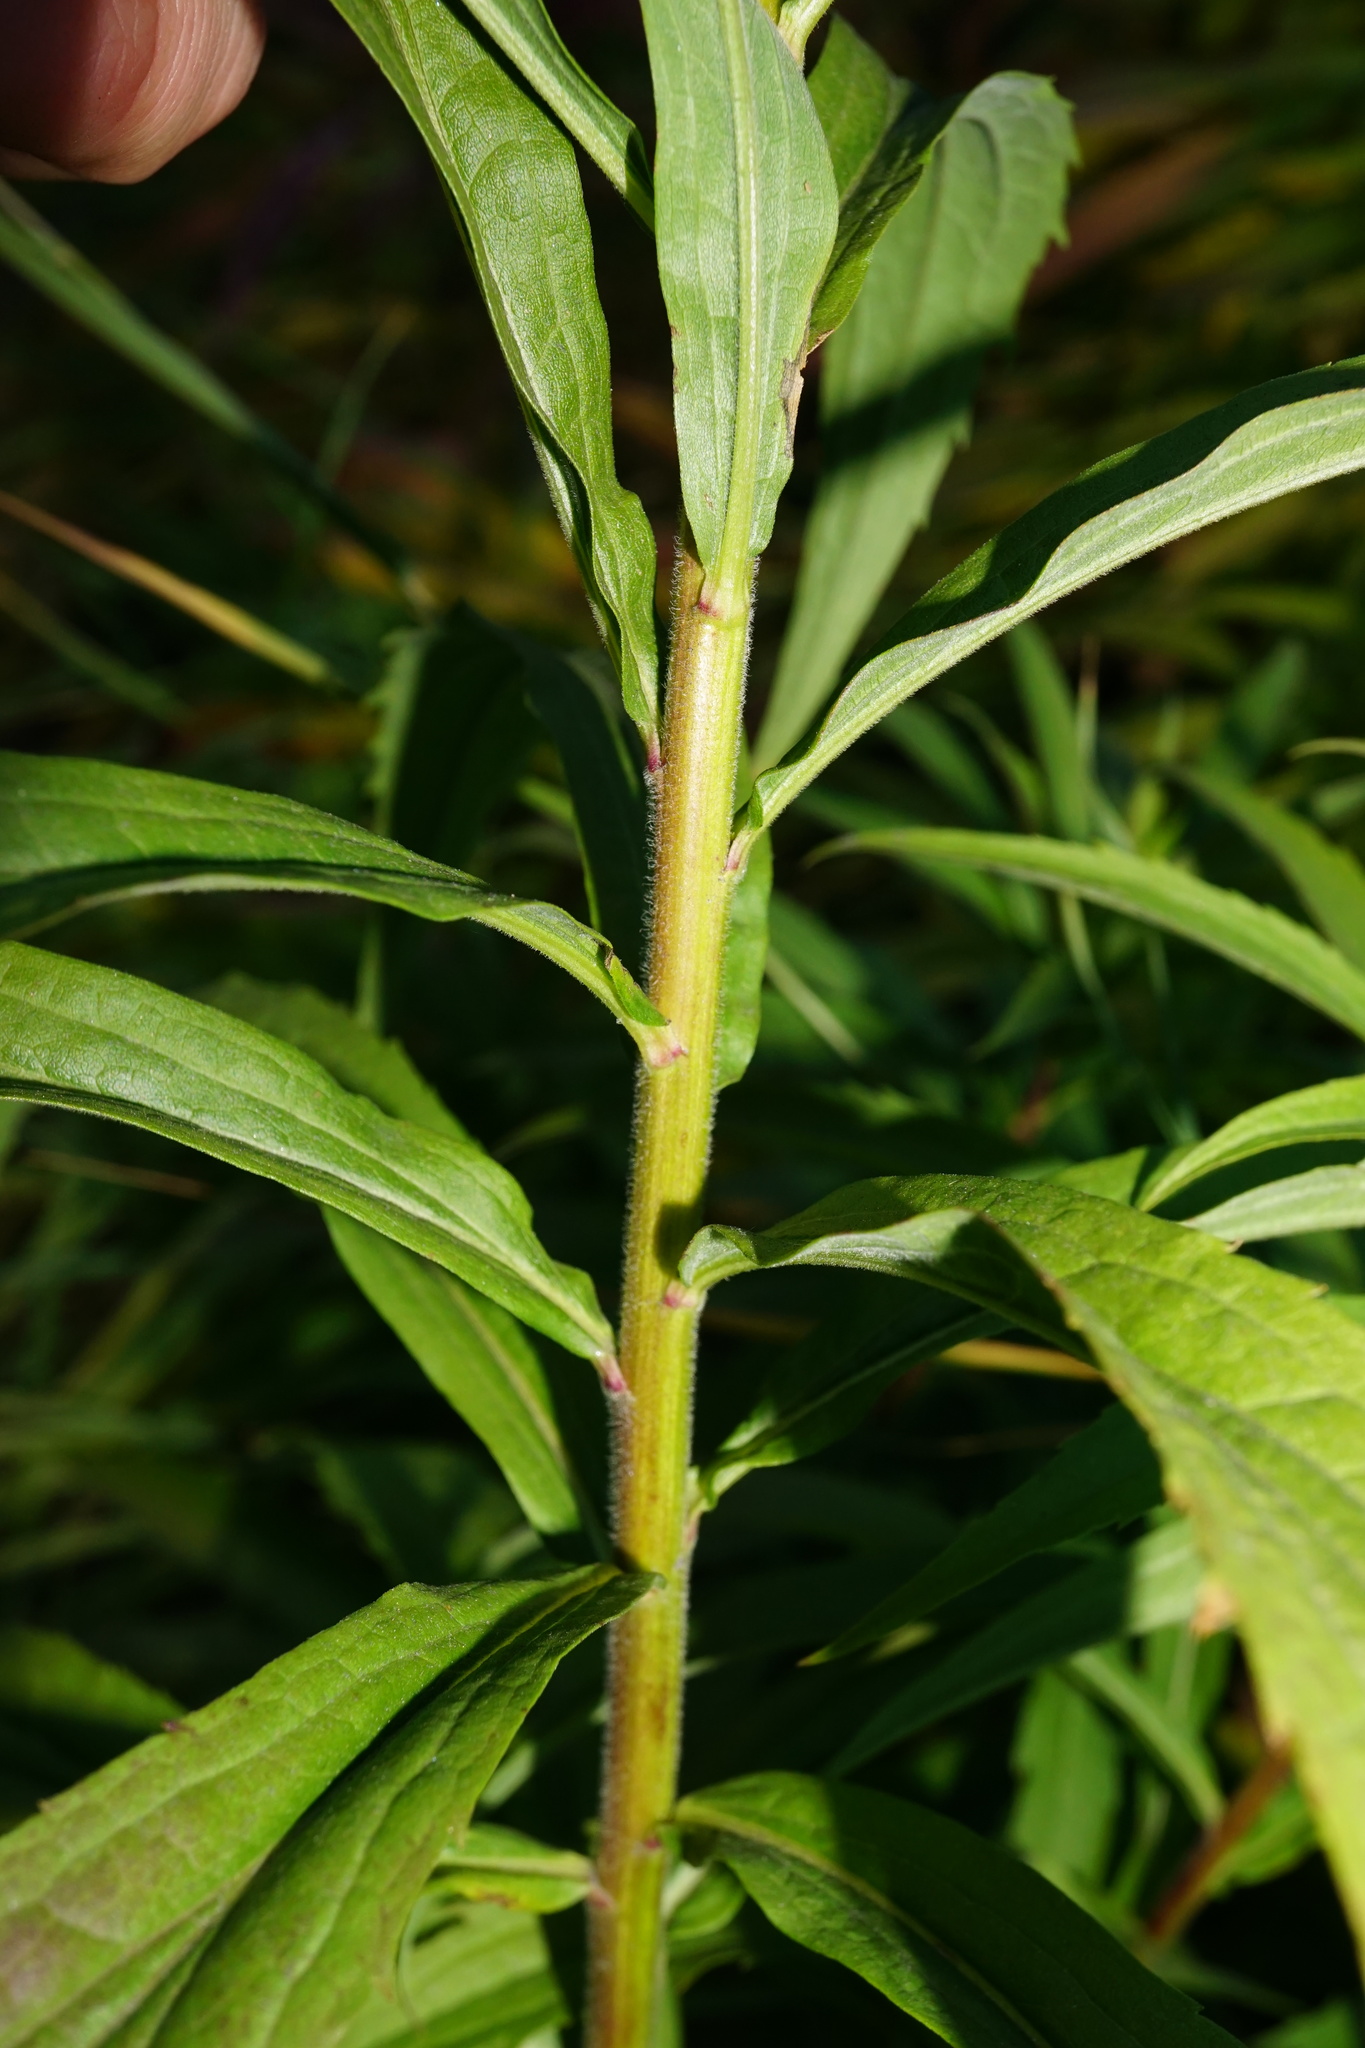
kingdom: Plantae
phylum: Tracheophyta
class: Magnoliopsida
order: Asterales
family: Asteraceae
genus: Solidago
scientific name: Solidago canadensis
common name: Canada goldenrod
